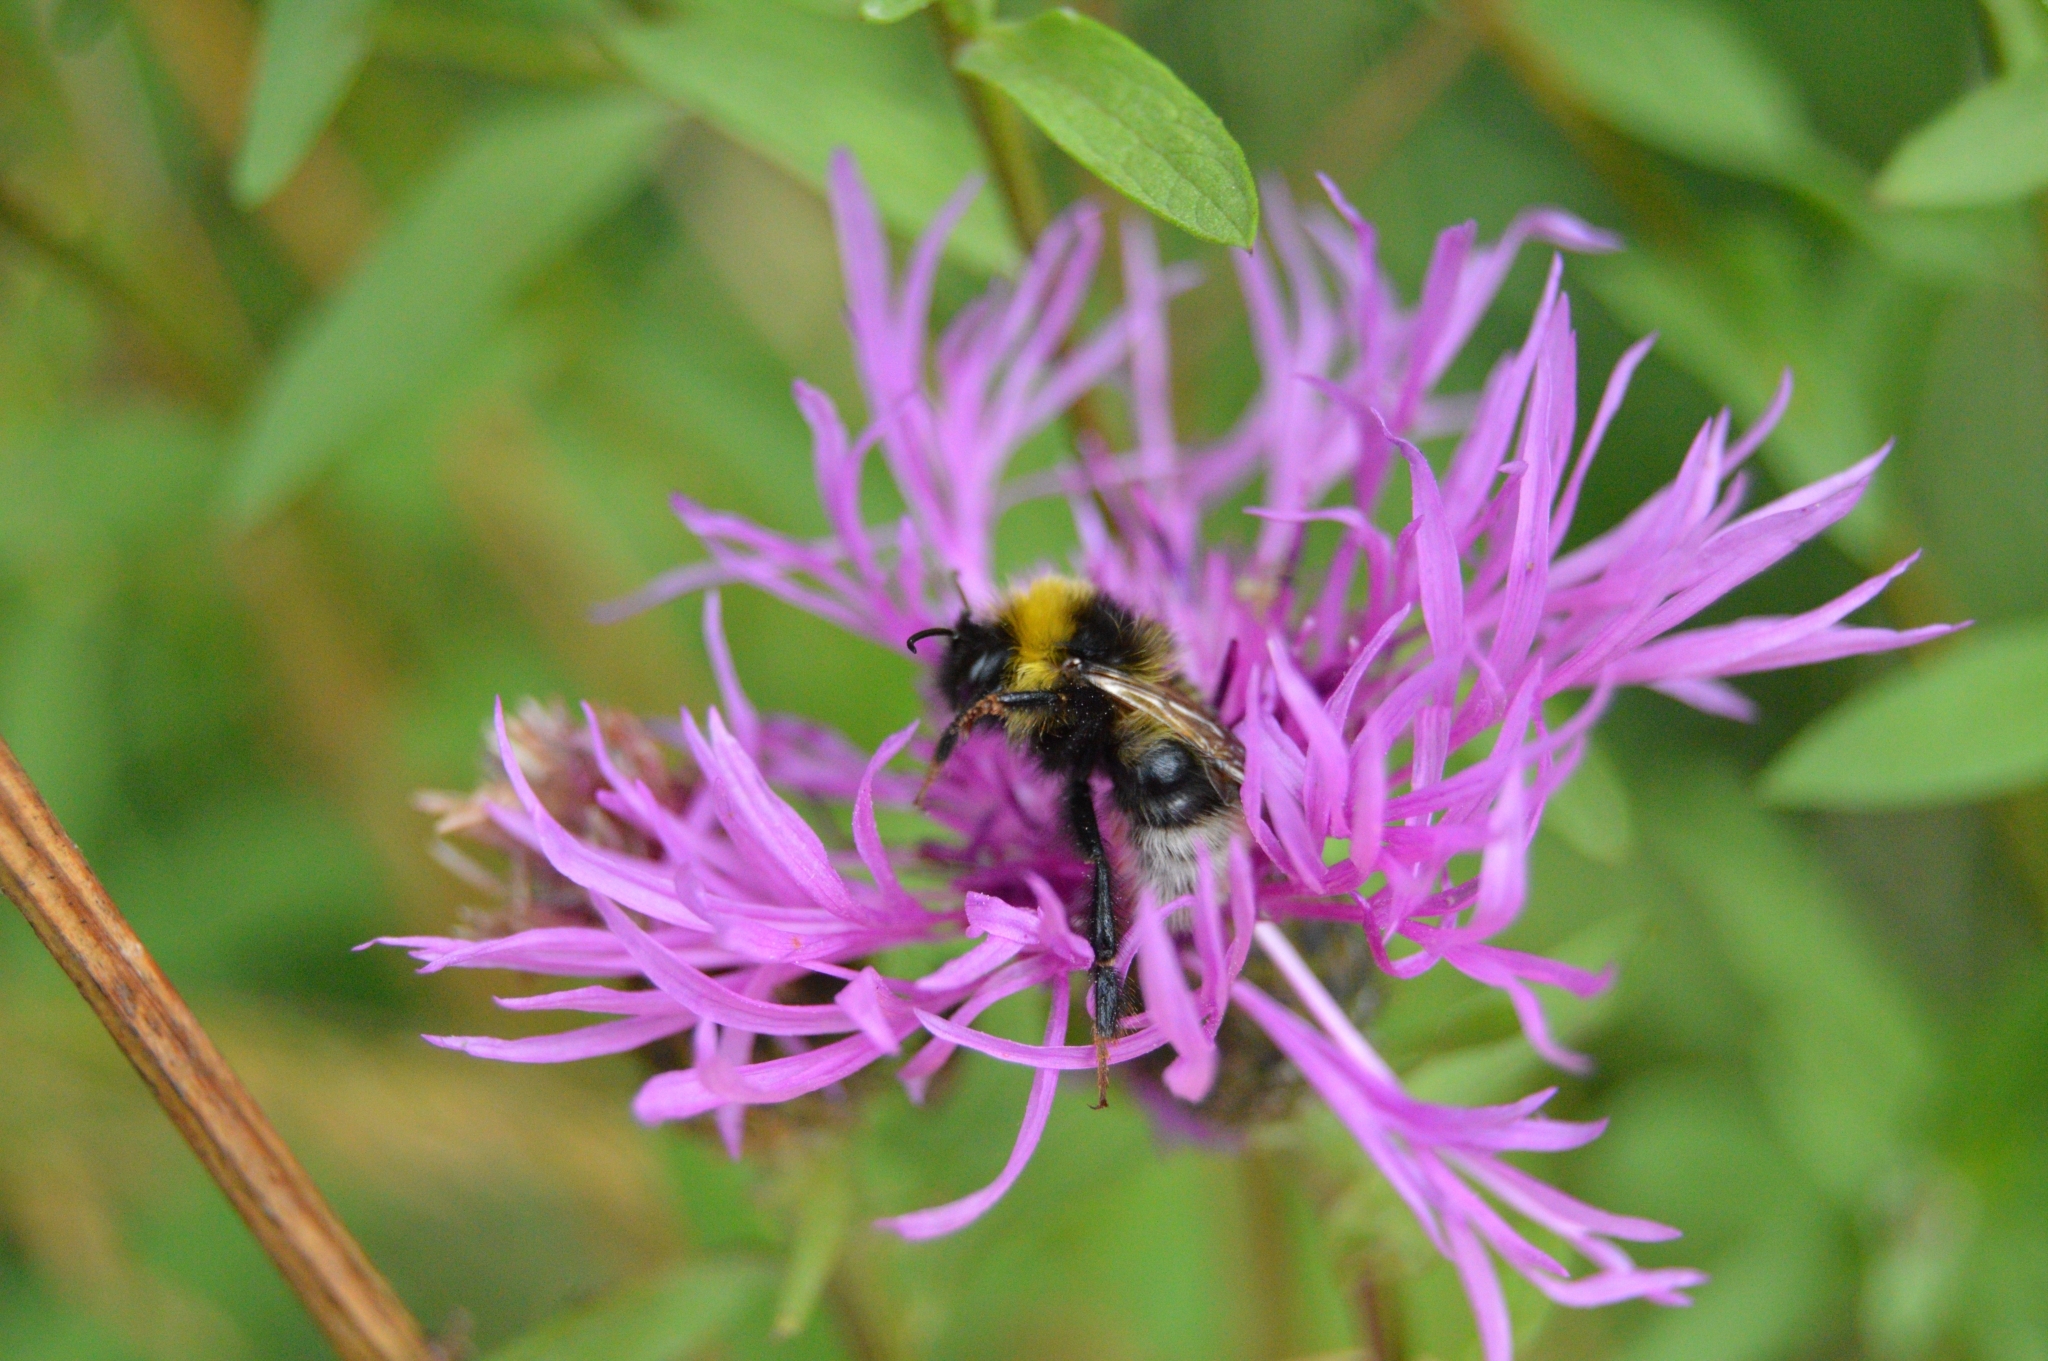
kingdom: Animalia
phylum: Arthropoda
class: Insecta
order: Hymenoptera
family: Apidae
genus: Bombus
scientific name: Bombus bohemicus
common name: Gypsy cuckoo bee
